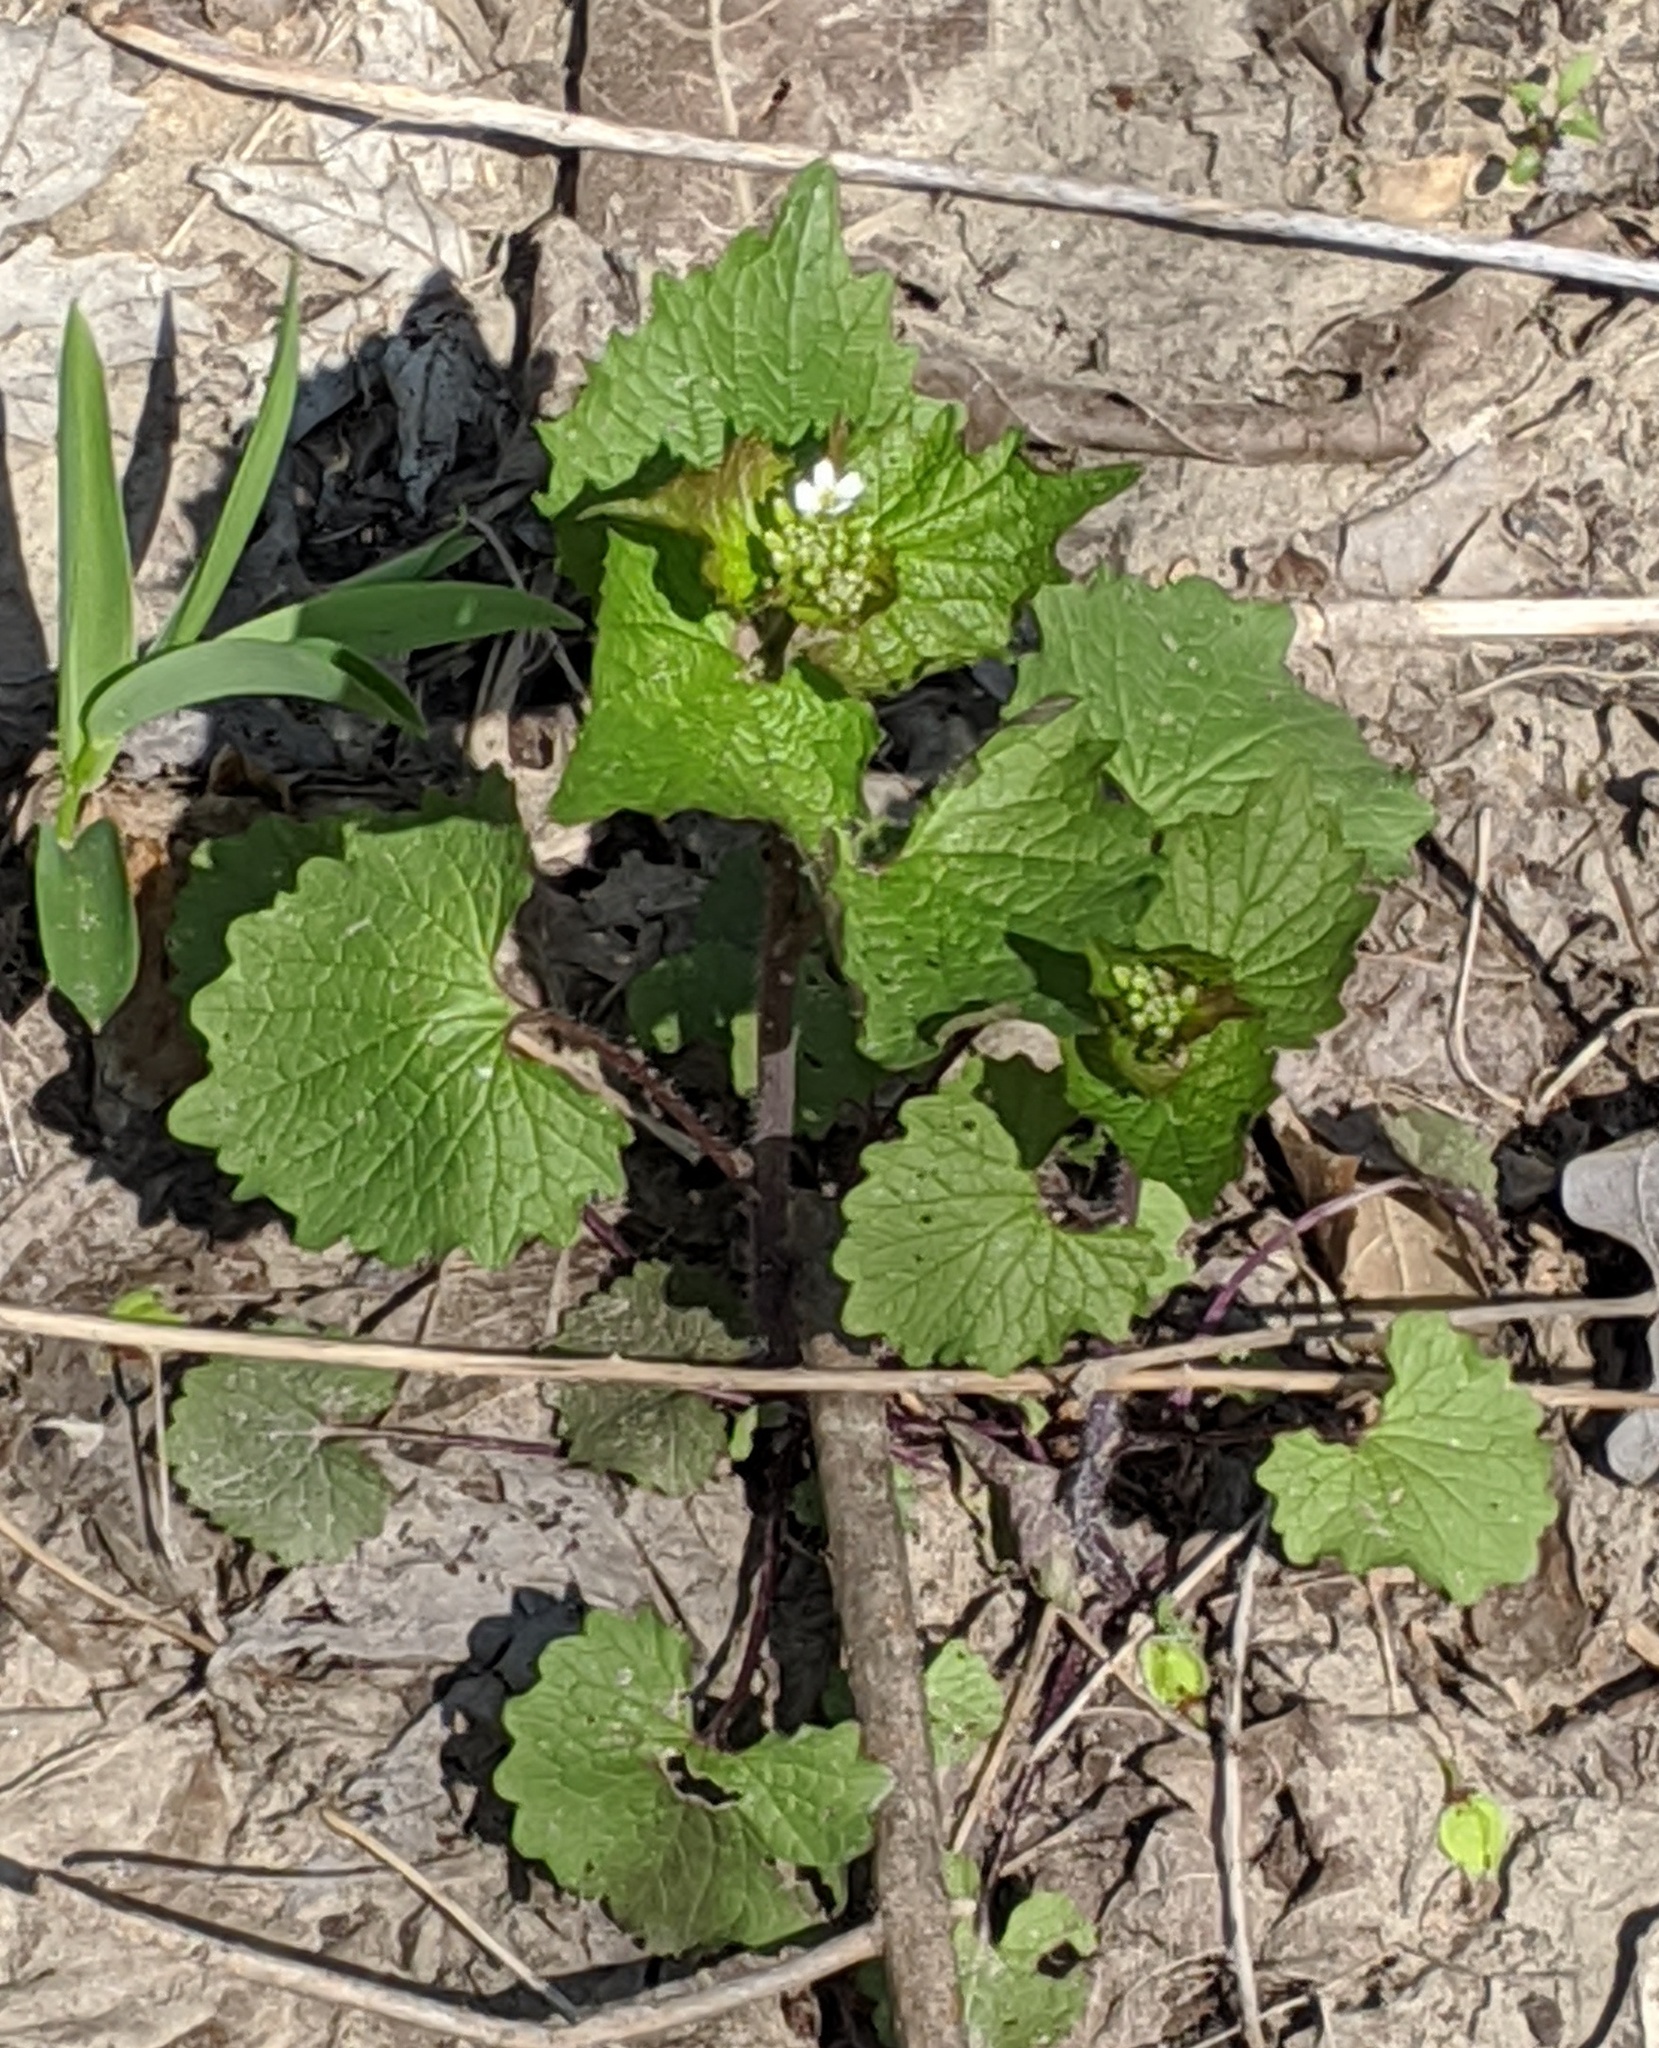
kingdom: Plantae
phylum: Tracheophyta
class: Magnoliopsida
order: Brassicales
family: Brassicaceae
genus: Alliaria
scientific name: Alliaria petiolata
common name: Garlic mustard
